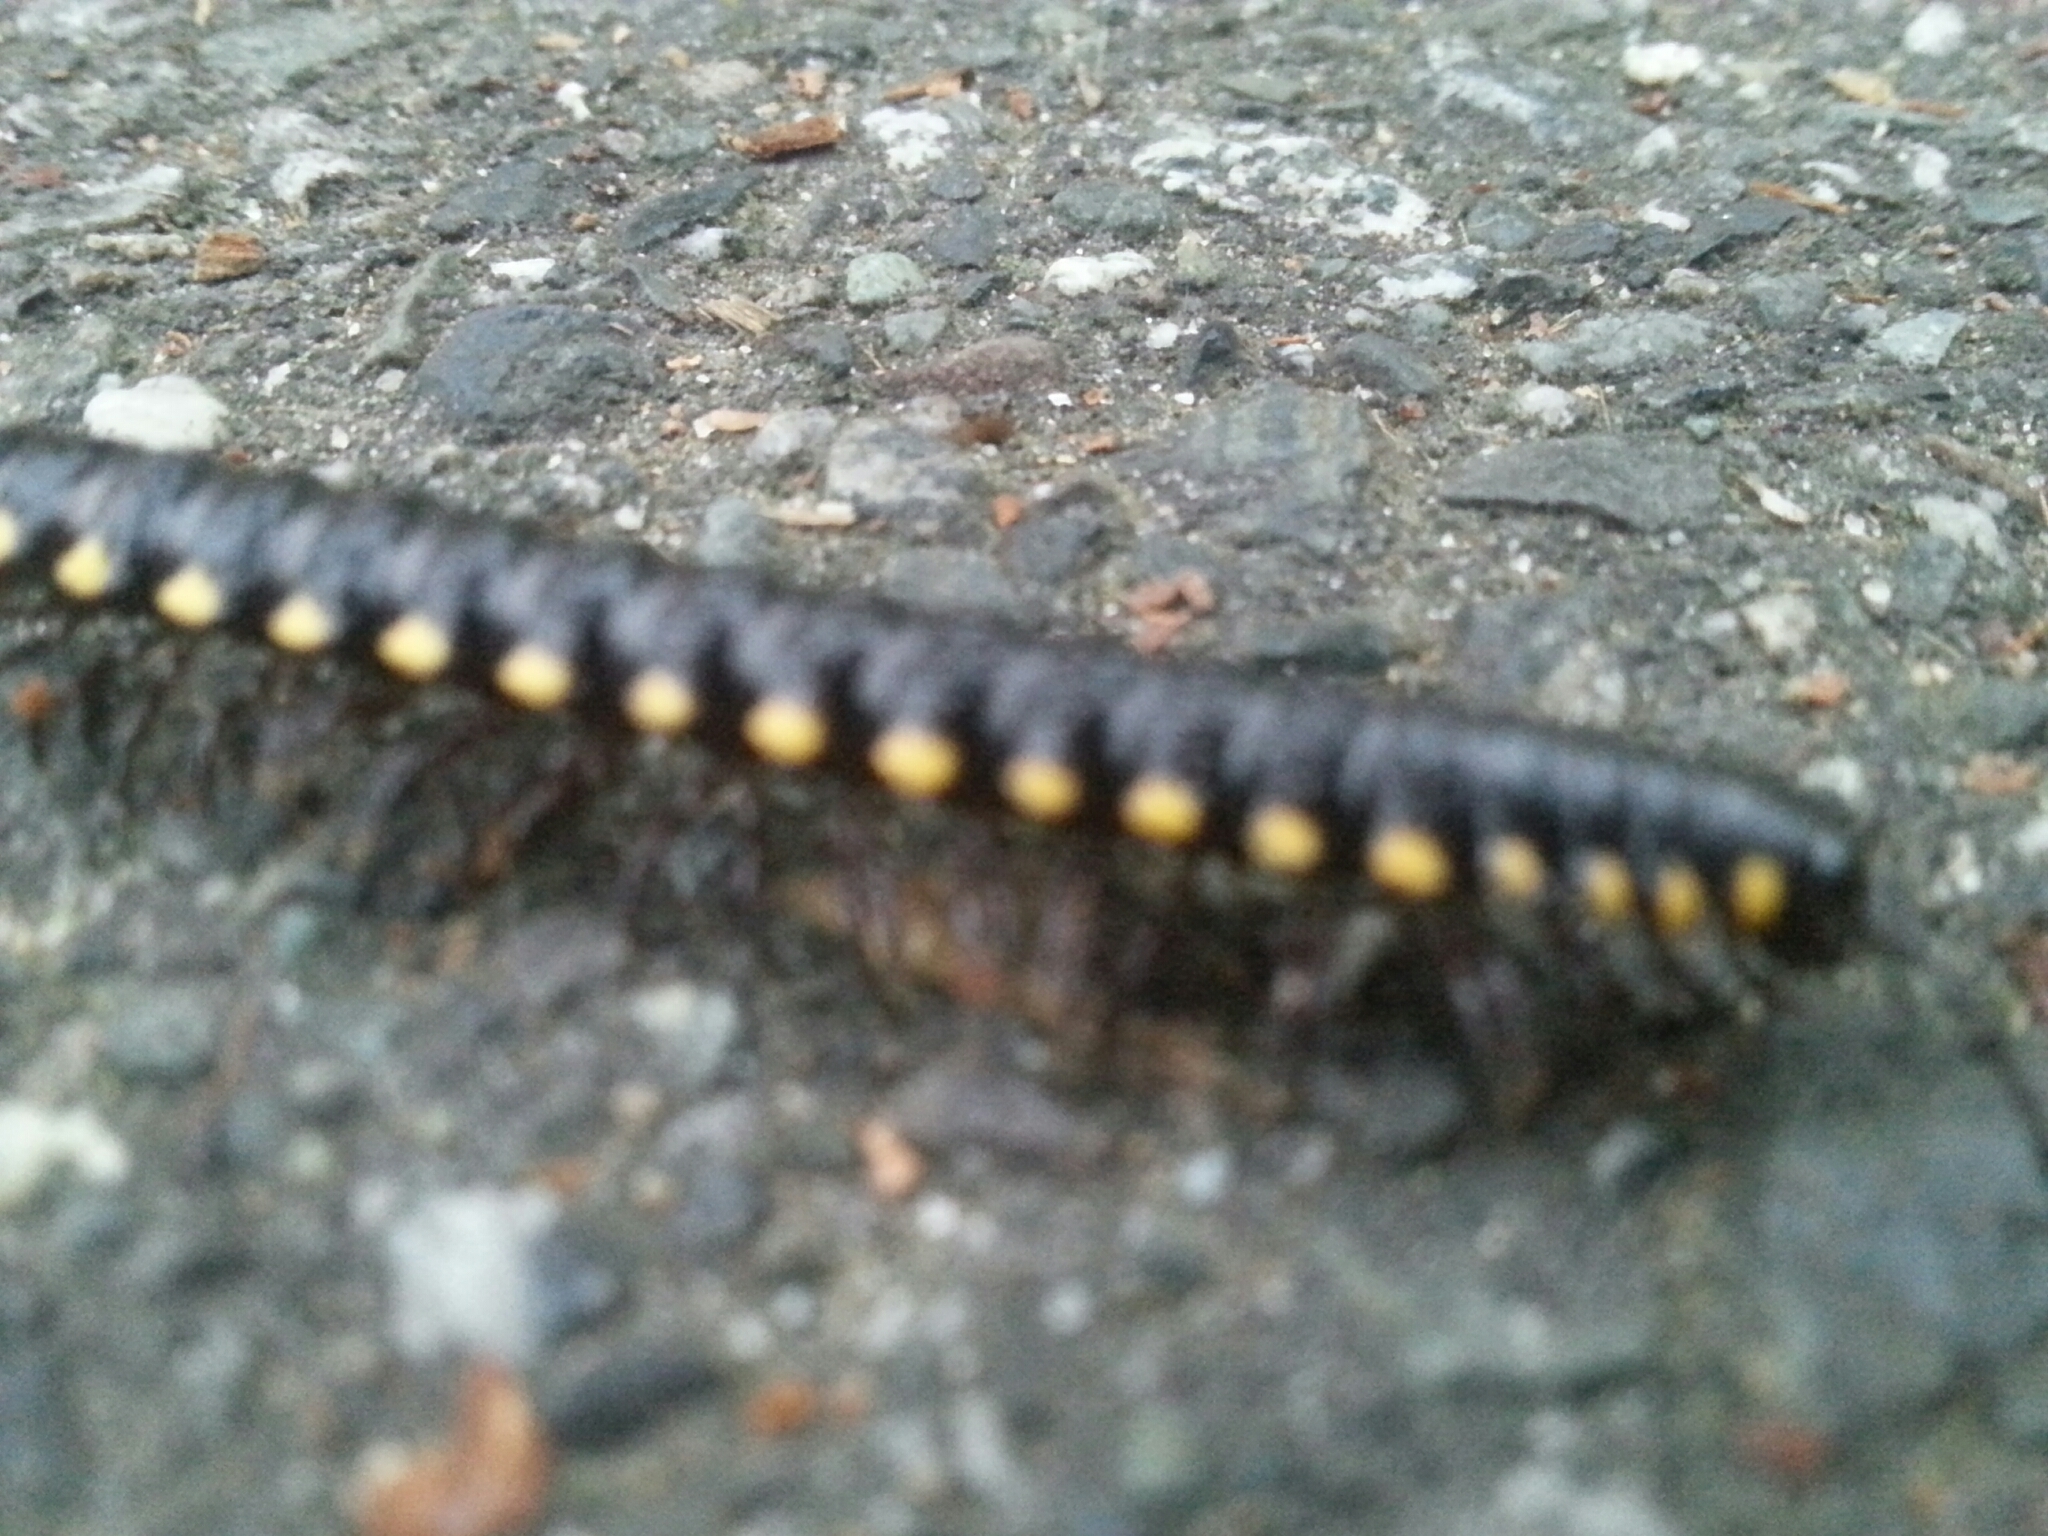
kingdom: Animalia
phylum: Arthropoda
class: Diplopoda
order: Polydesmida
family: Xystodesmidae
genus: Harpaphe
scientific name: Harpaphe haydeniana
